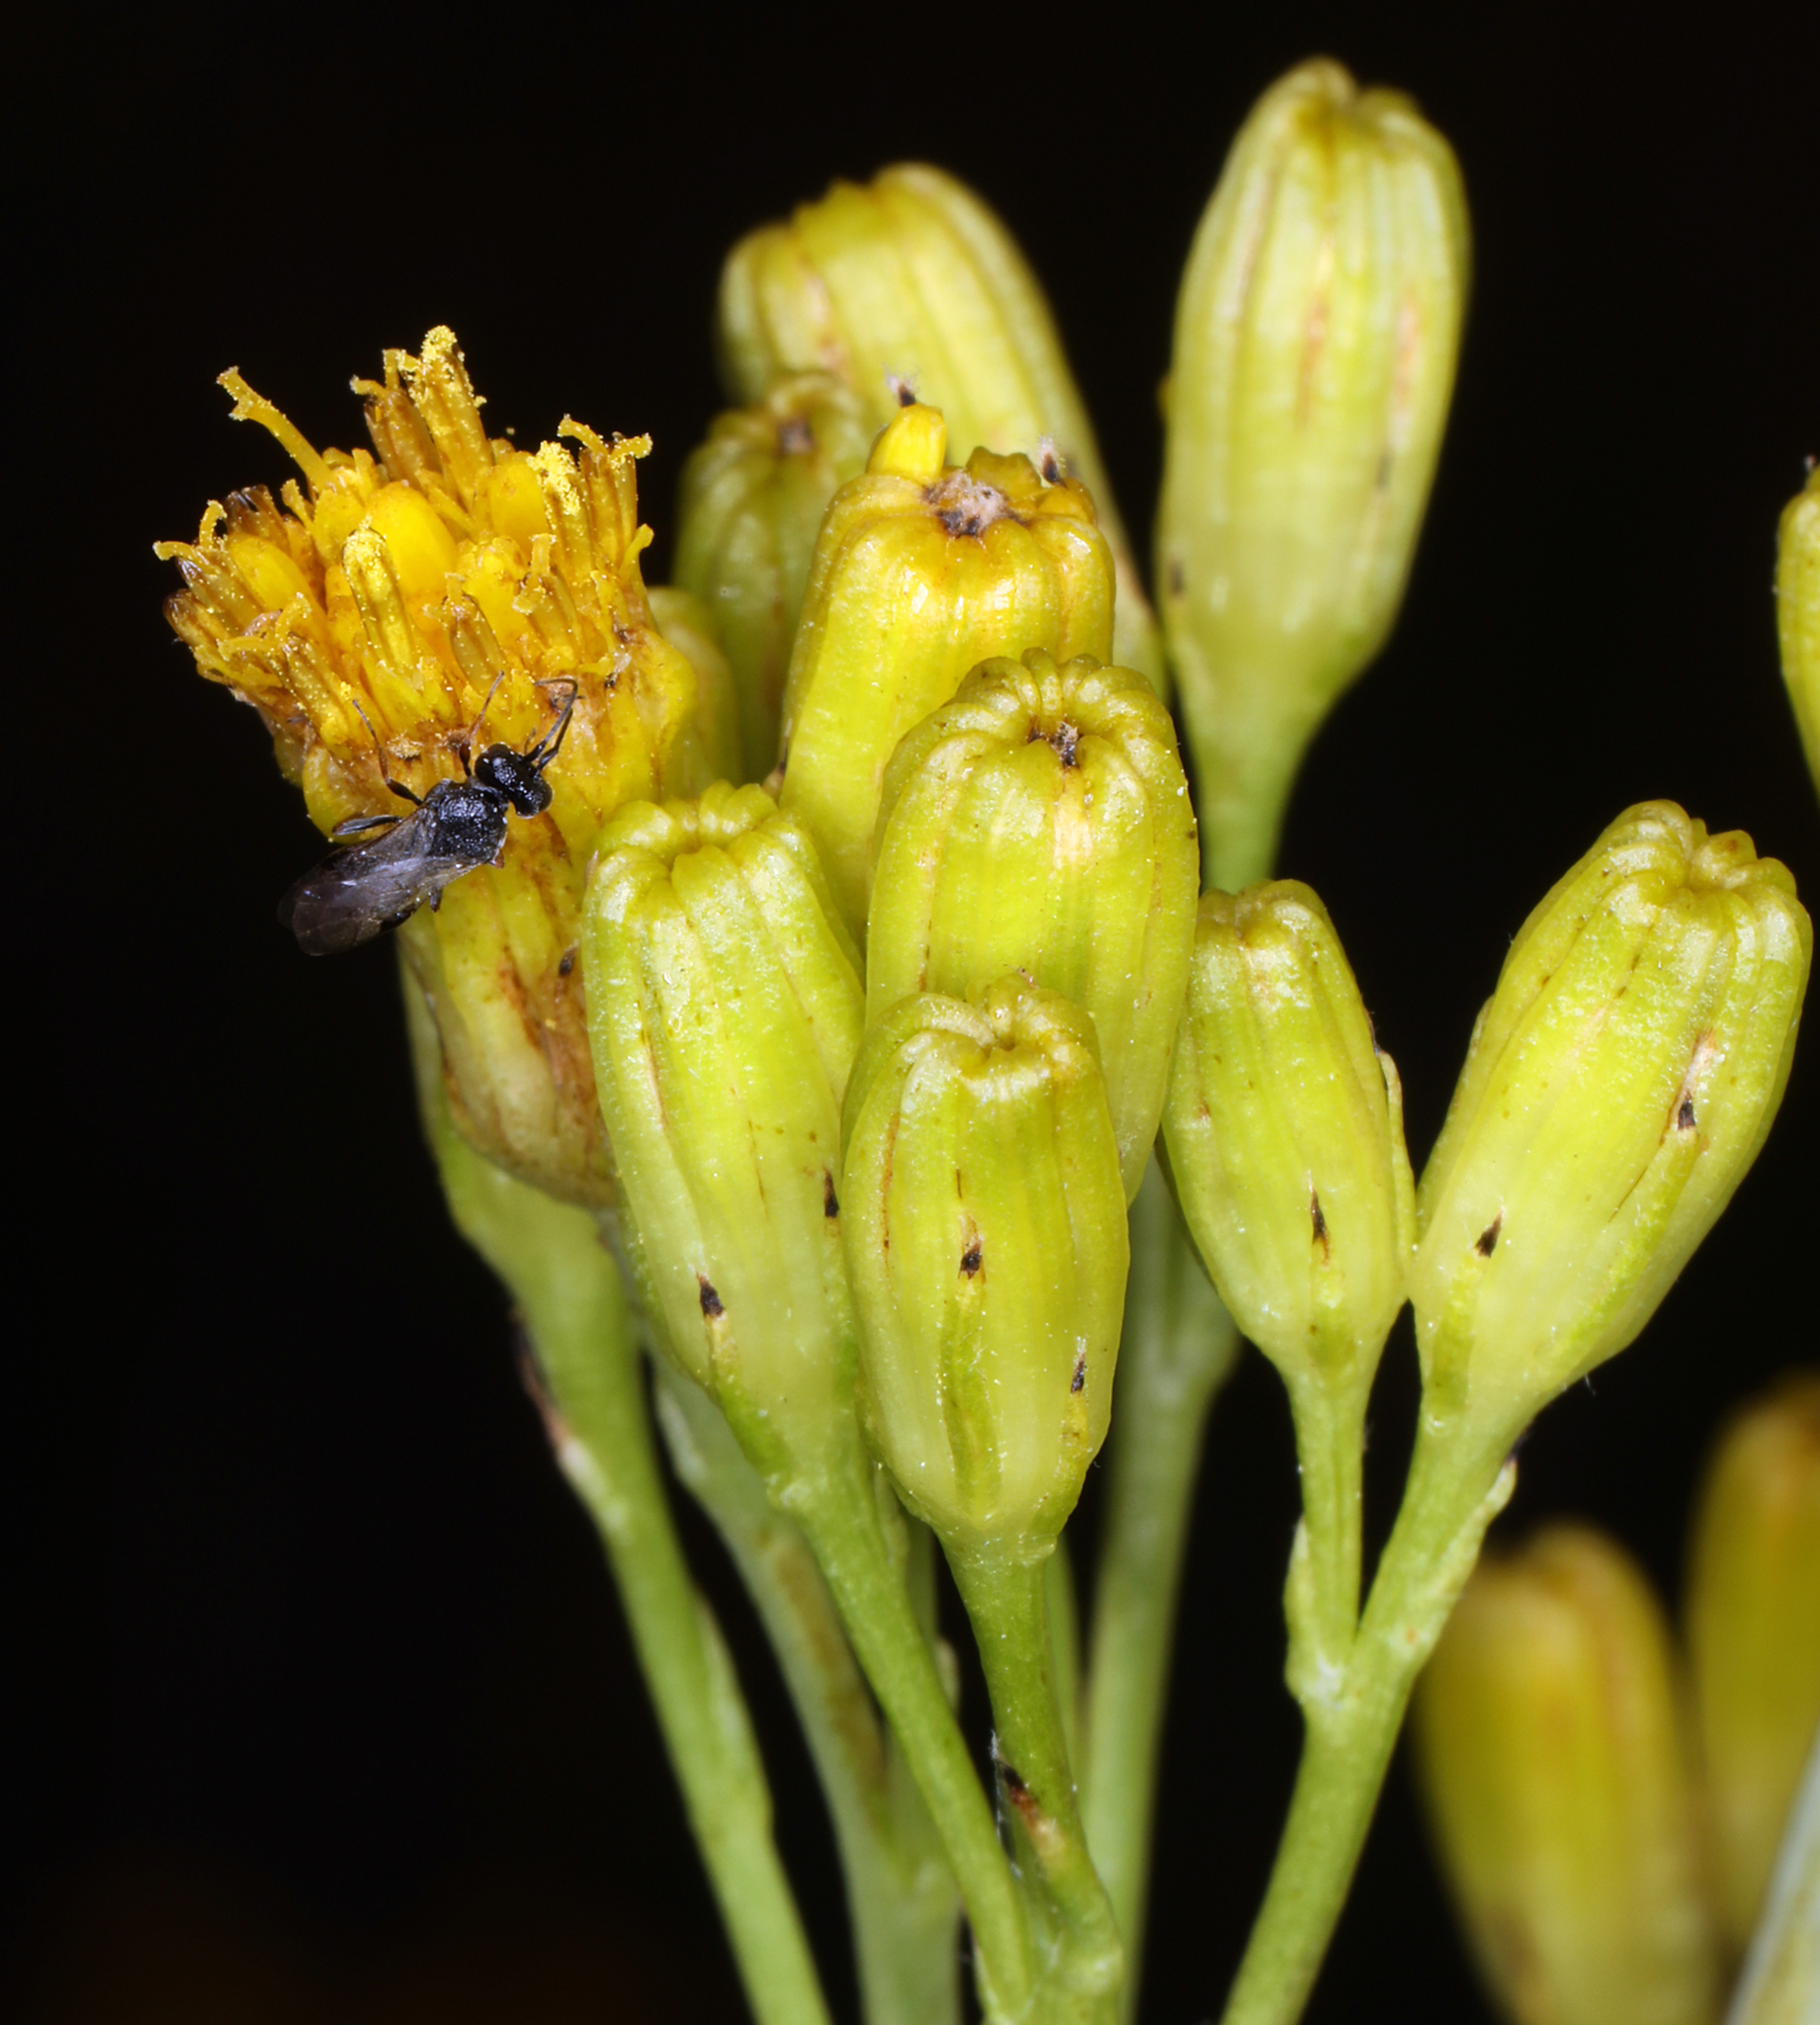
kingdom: Plantae
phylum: Tracheophyta
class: Magnoliopsida
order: Asterales
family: Asteraceae
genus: Senecio
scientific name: Senecio hydrophilus
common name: Water ragwort
